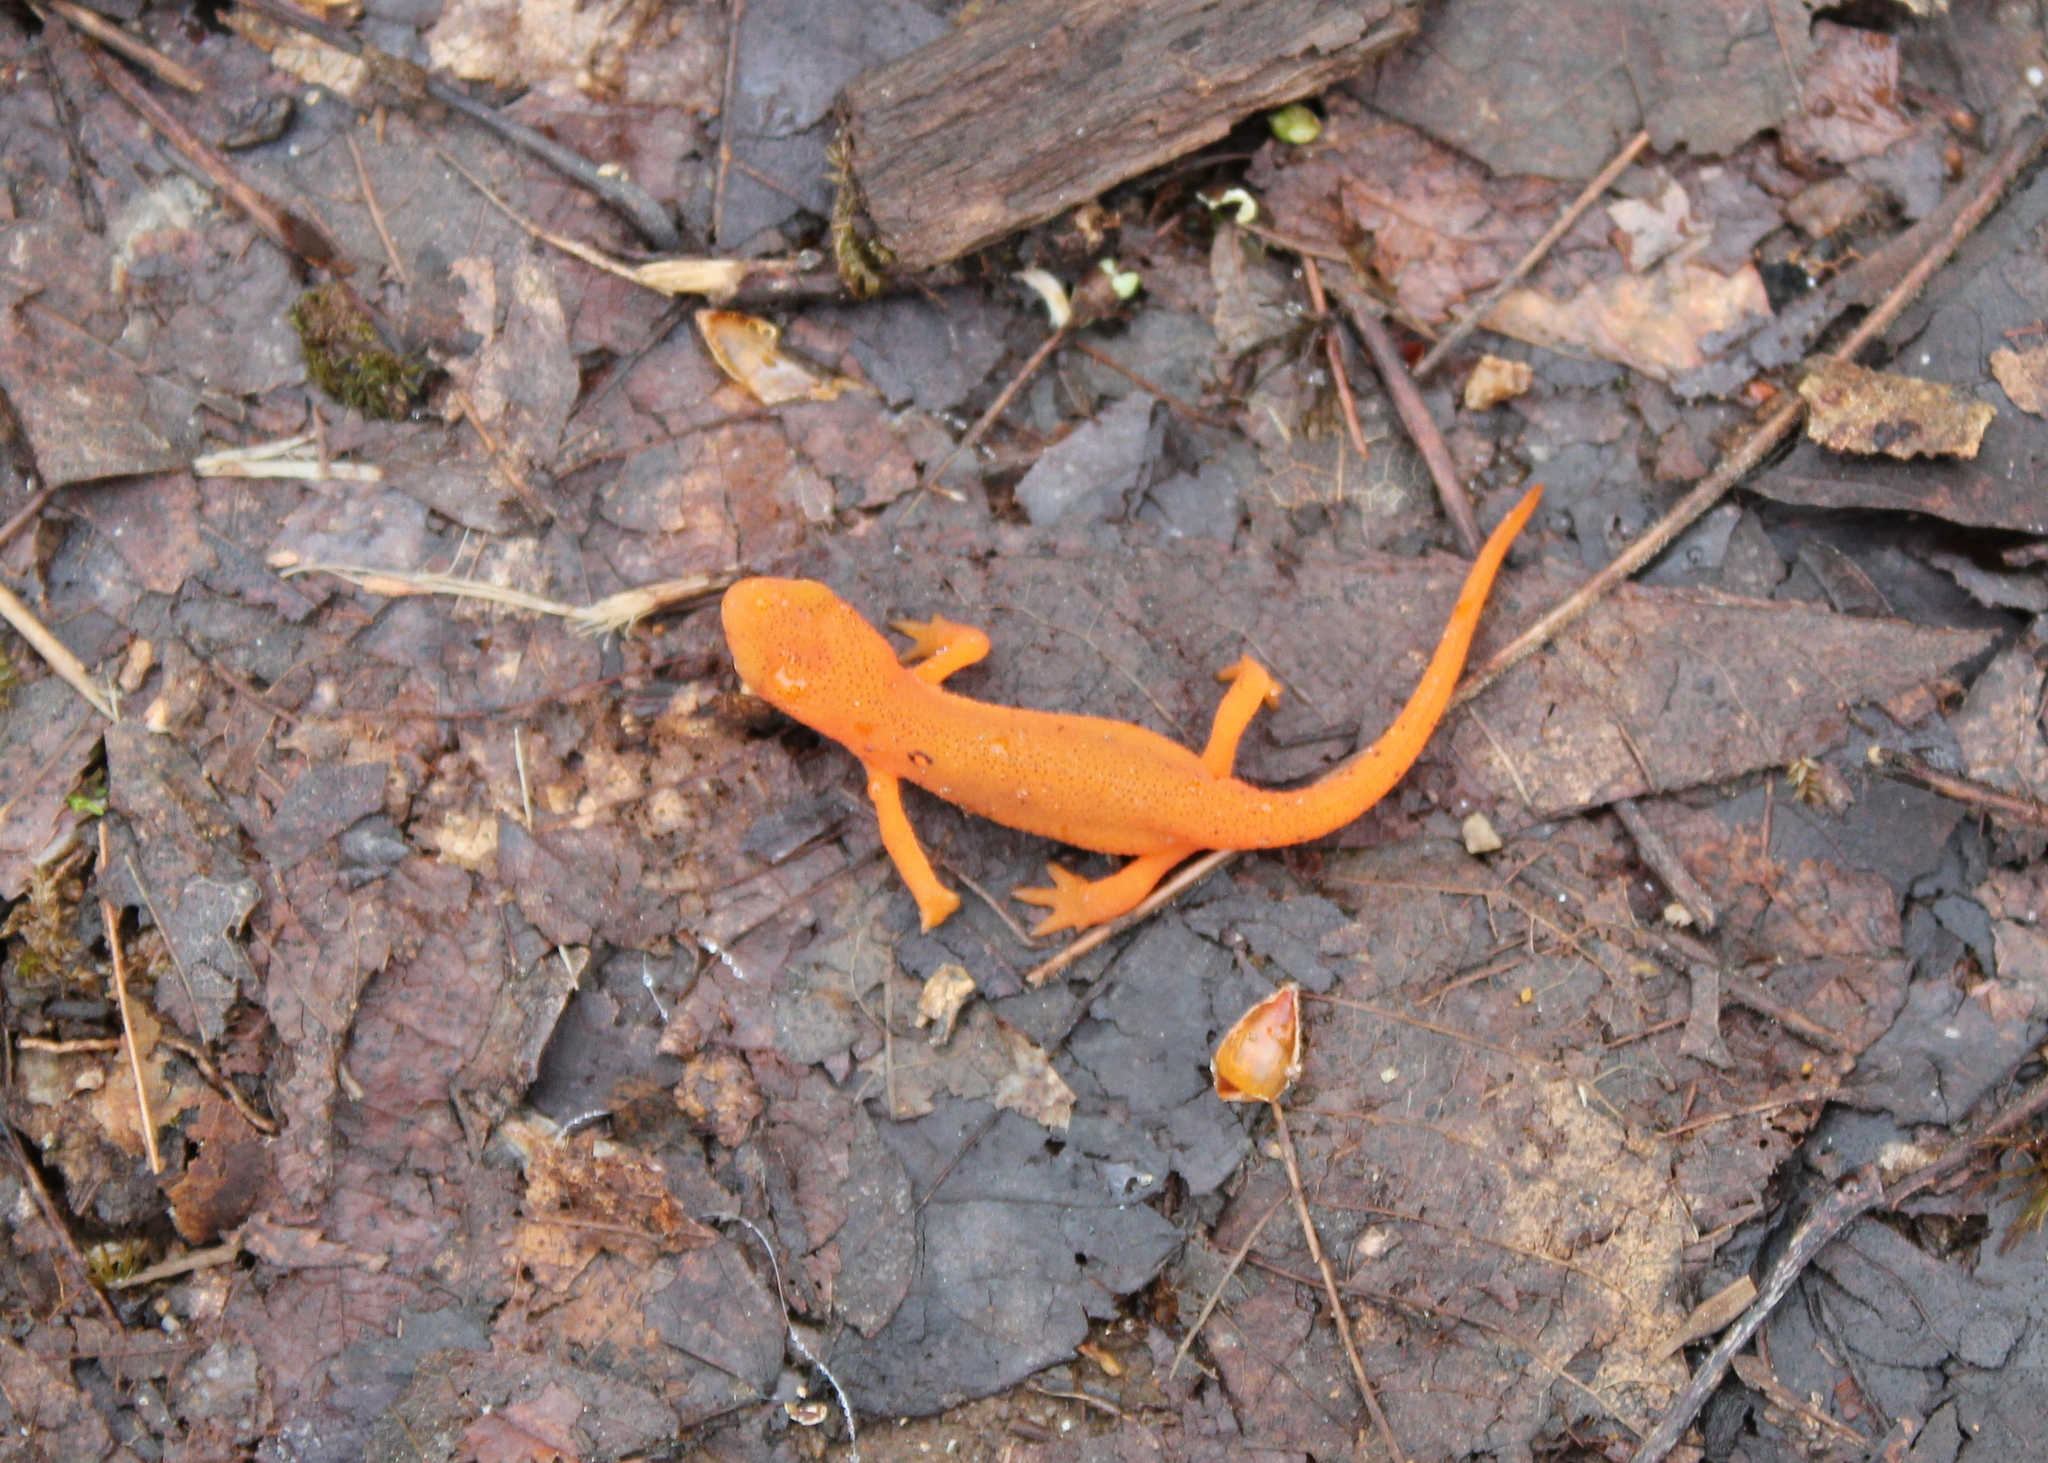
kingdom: Animalia
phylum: Chordata
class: Amphibia
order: Caudata
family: Salamandridae
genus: Notophthalmus
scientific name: Notophthalmus viridescens
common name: Eastern newt
